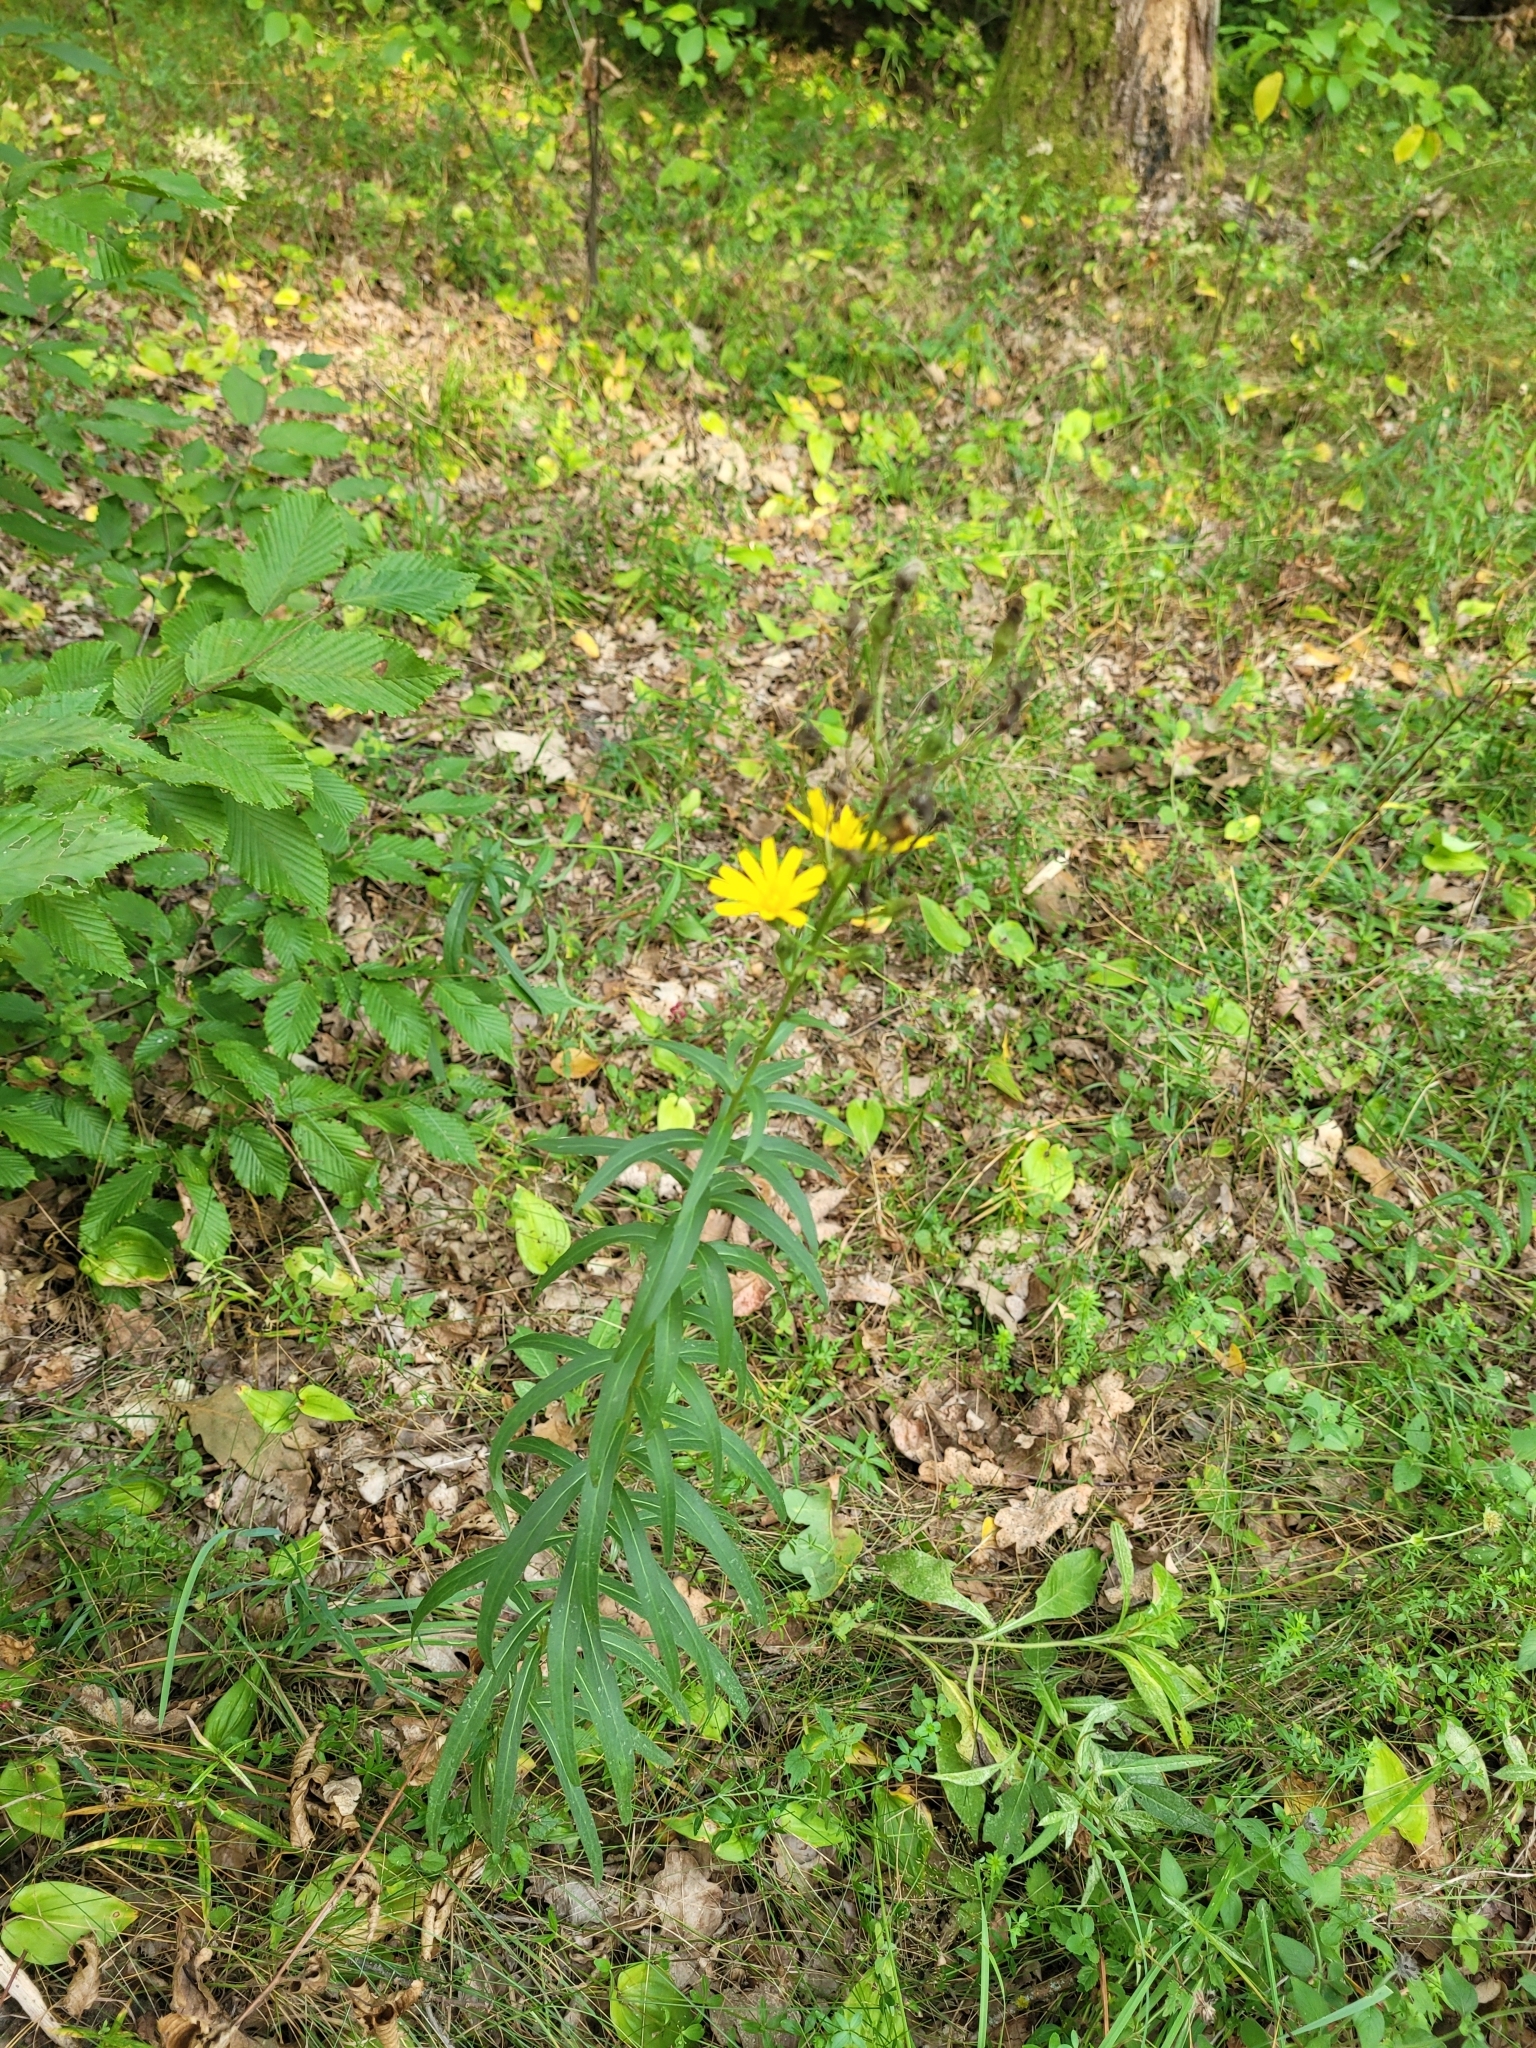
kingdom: Plantae
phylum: Tracheophyta
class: Magnoliopsida
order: Asterales
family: Asteraceae
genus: Hieracium
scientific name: Hieracium umbellatum
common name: Northern hawkweed
